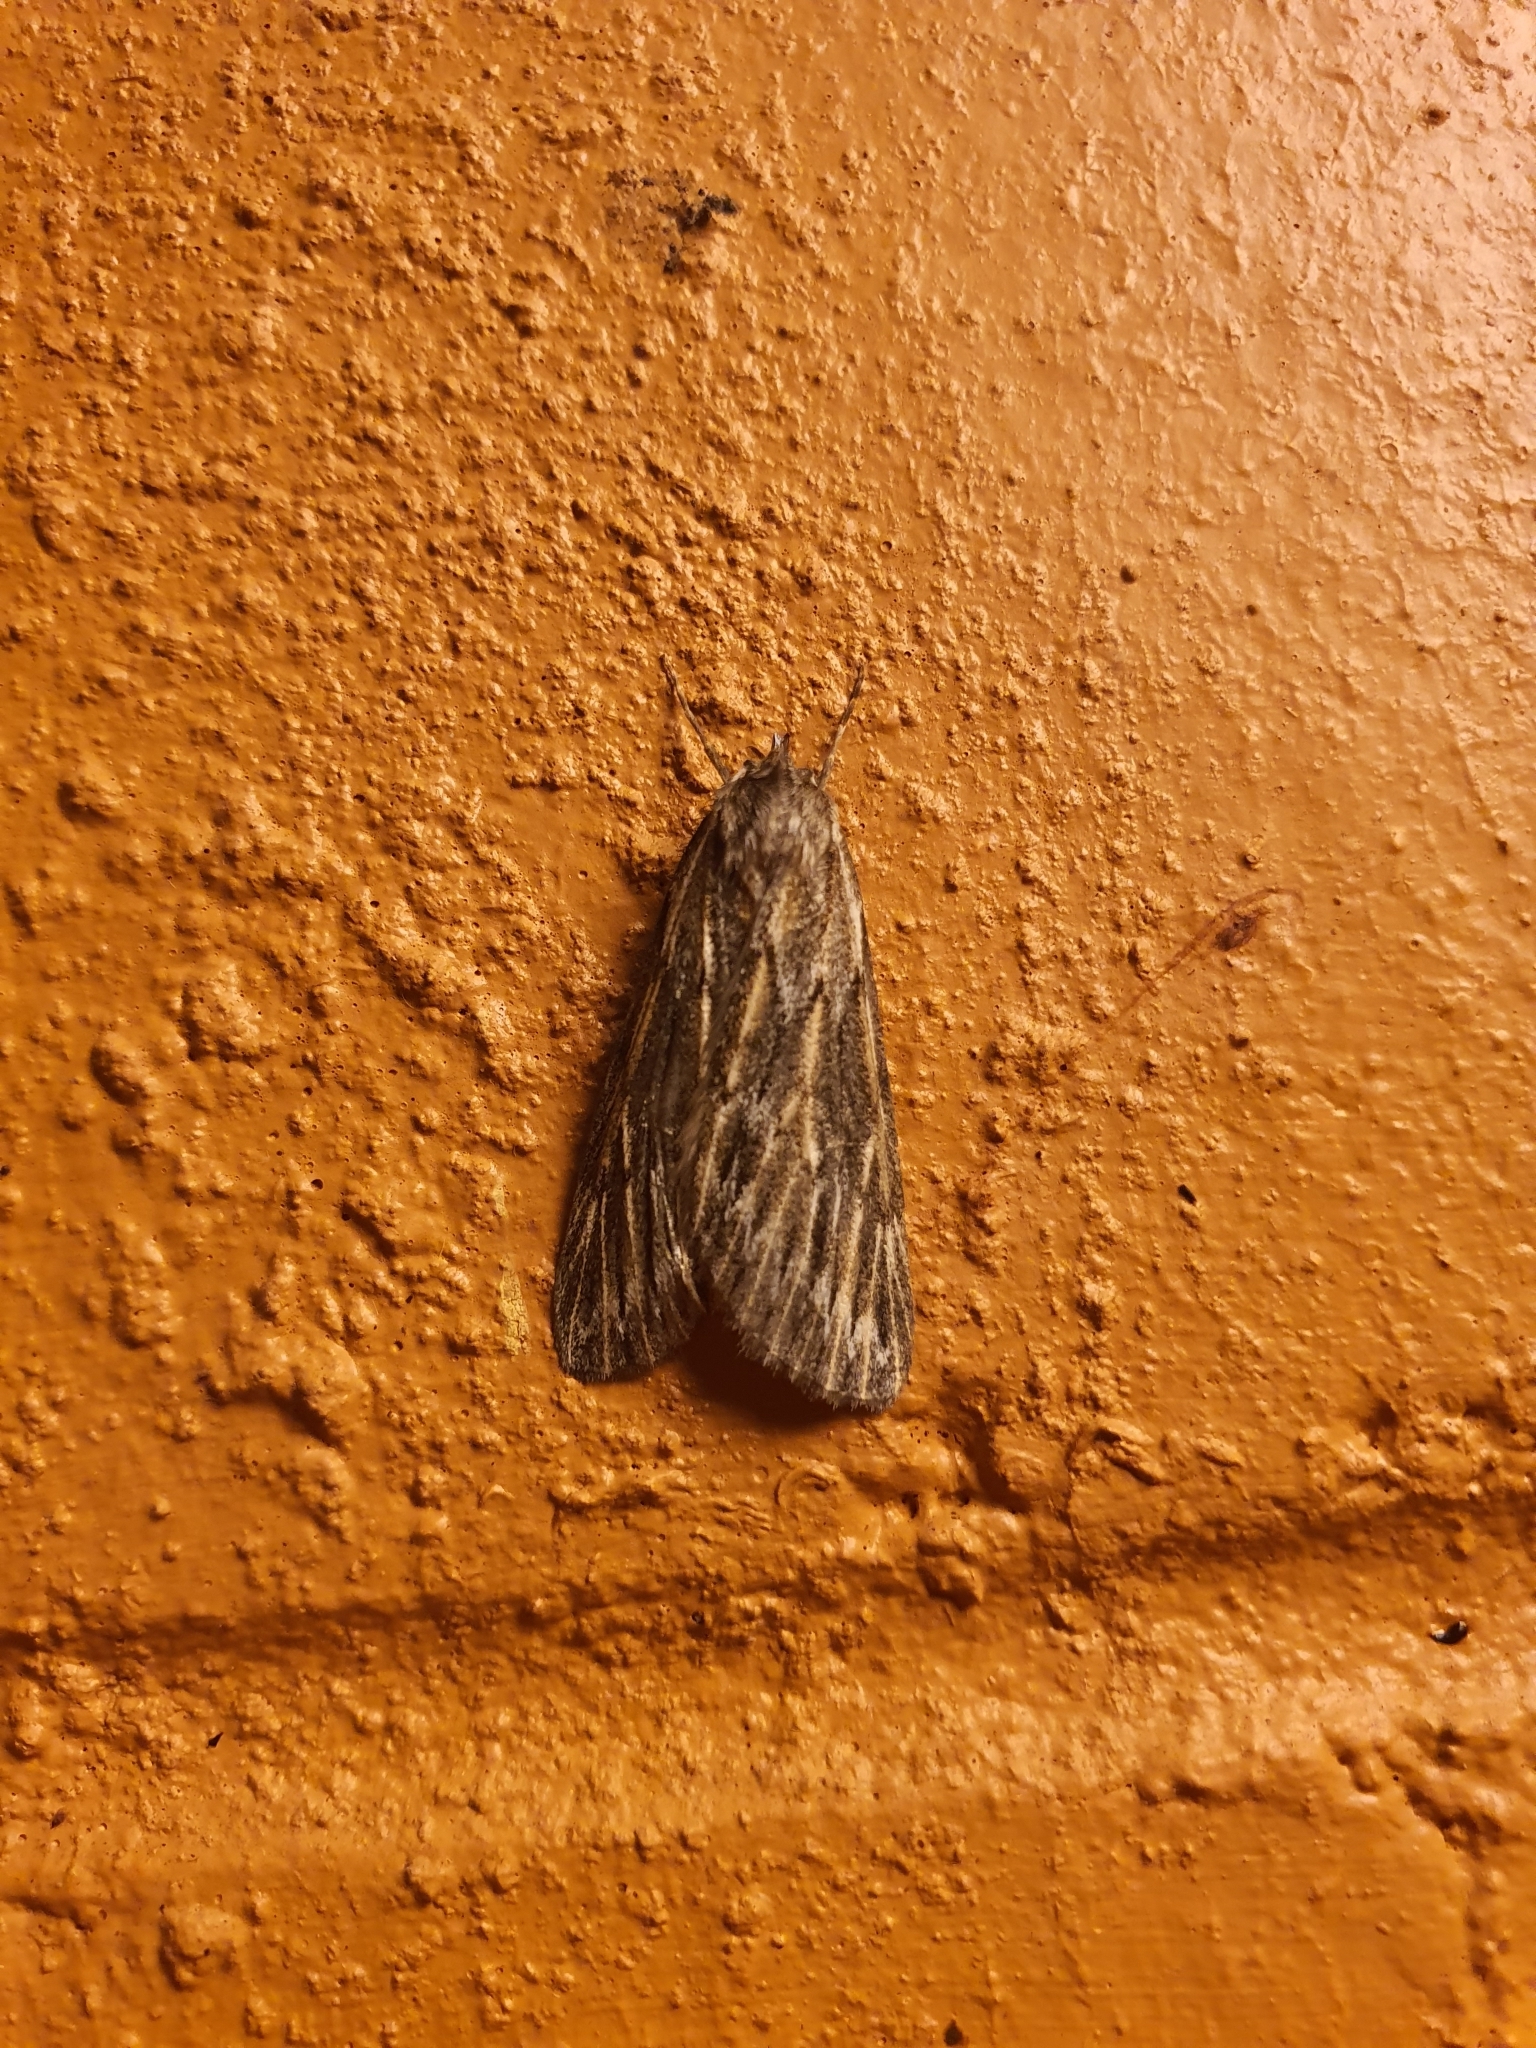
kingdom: Animalia
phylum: Arthropoda
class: Insecta
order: Lepidoptera
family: Geometridae
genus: Ciampa
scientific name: Ciampa arietaria
